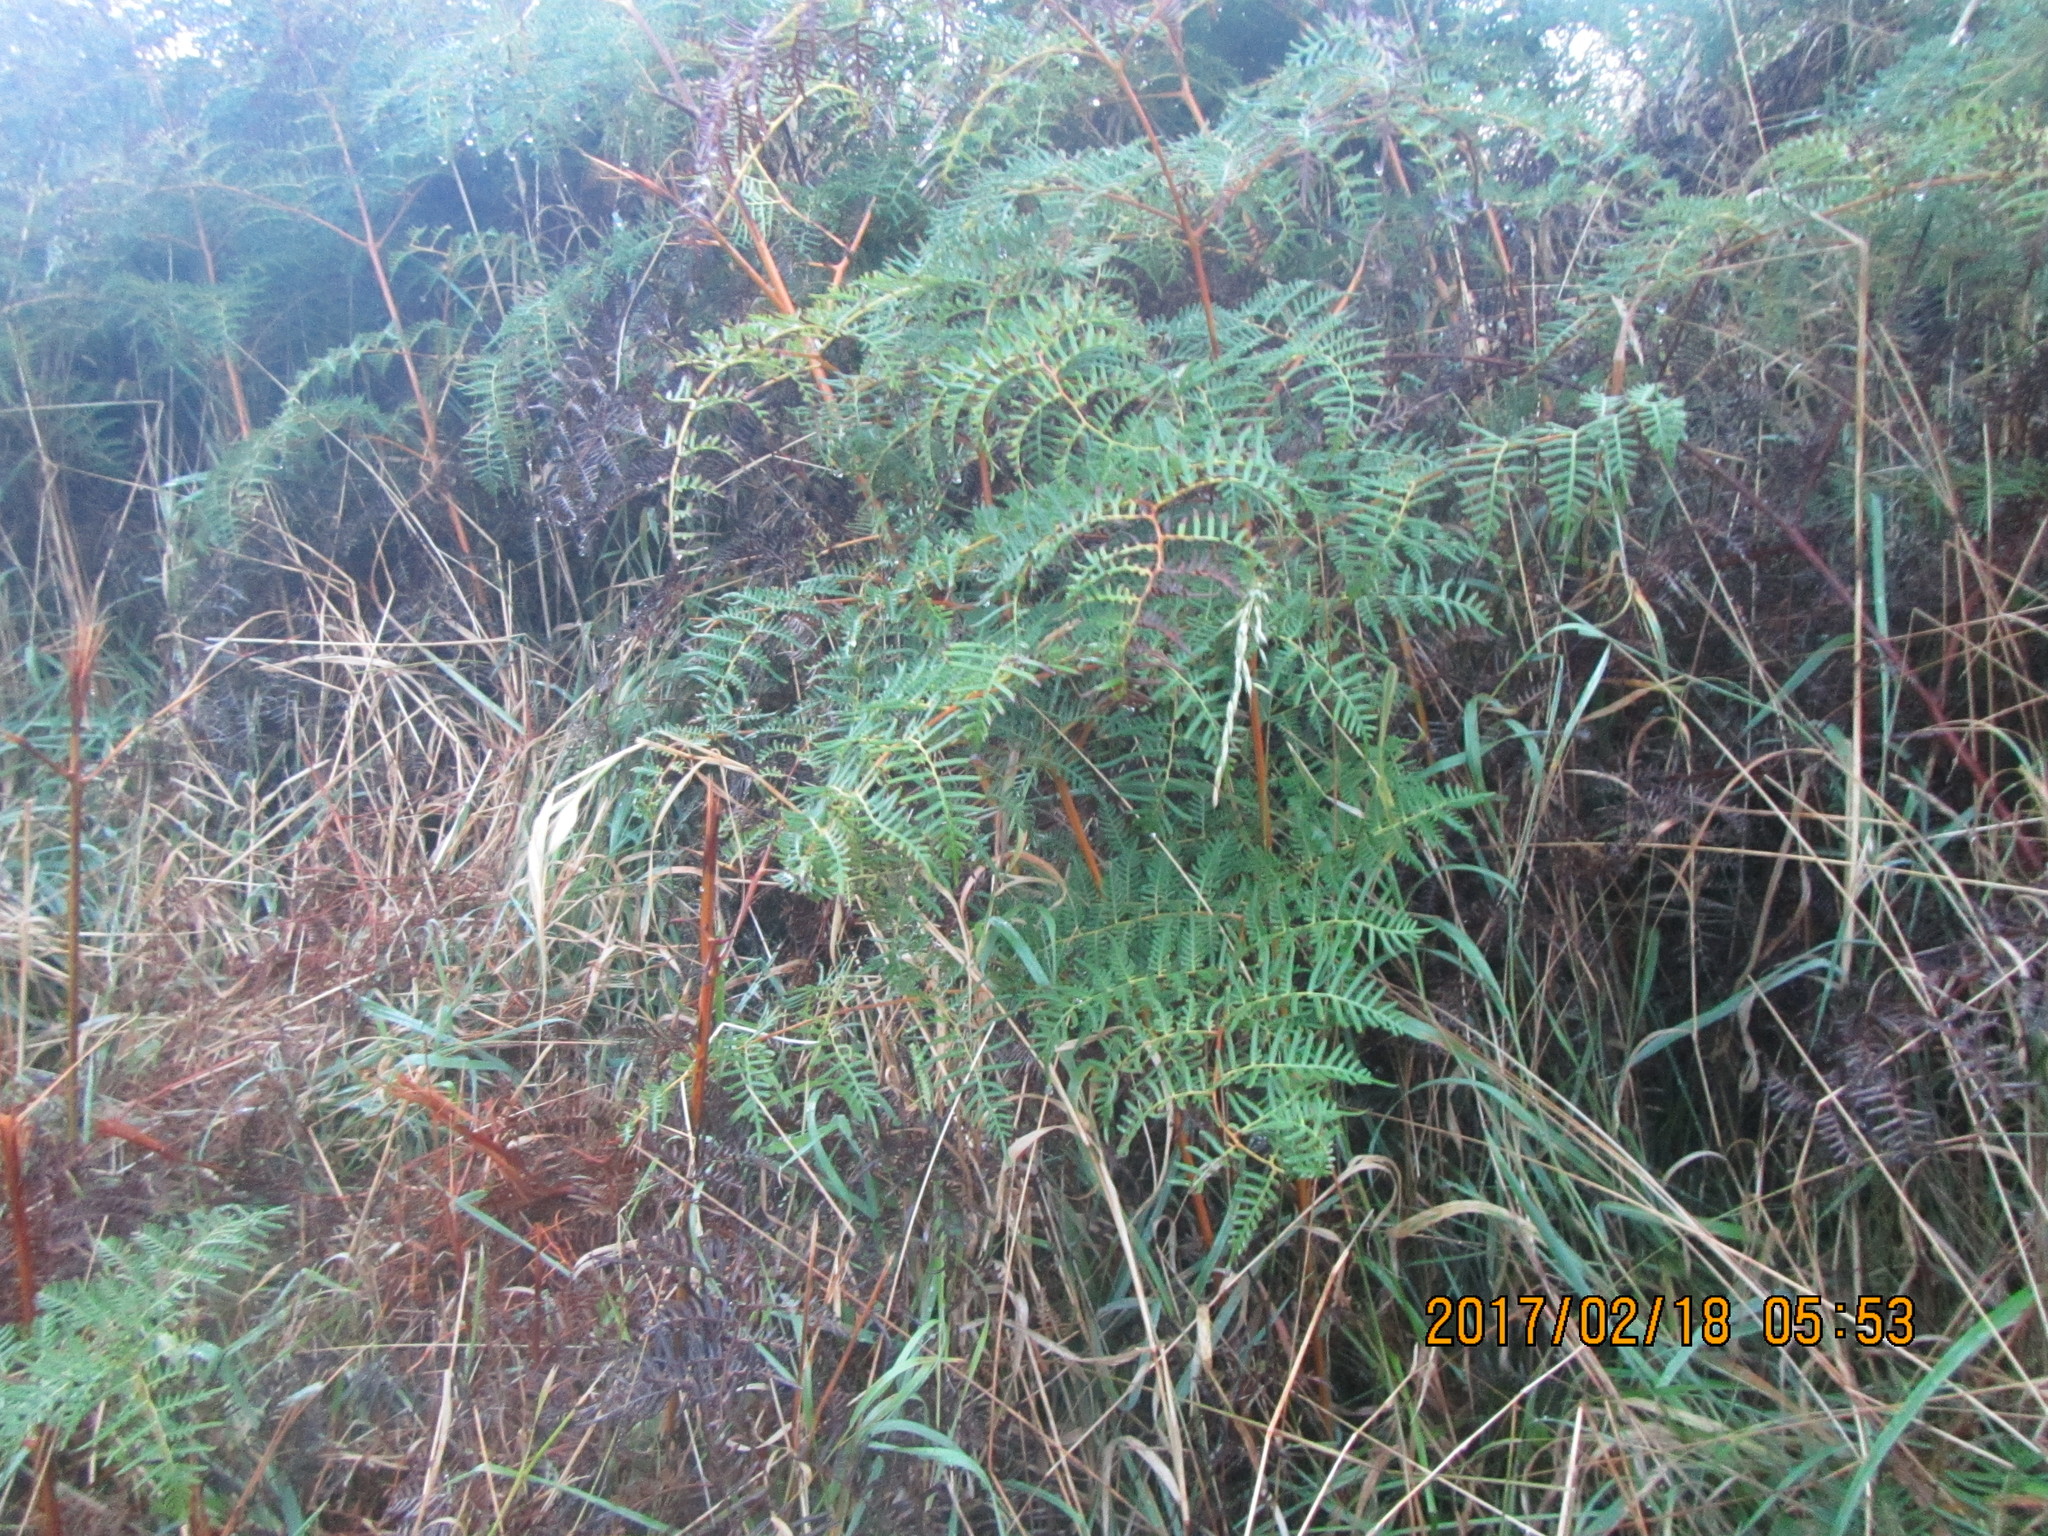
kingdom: Plantae
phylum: Tracheophyta
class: Polypodiopsida
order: Polypodiales
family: Dennstaedtiaceae
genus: Pteridium
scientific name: Pteridium esculentum
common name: Bracken fern
